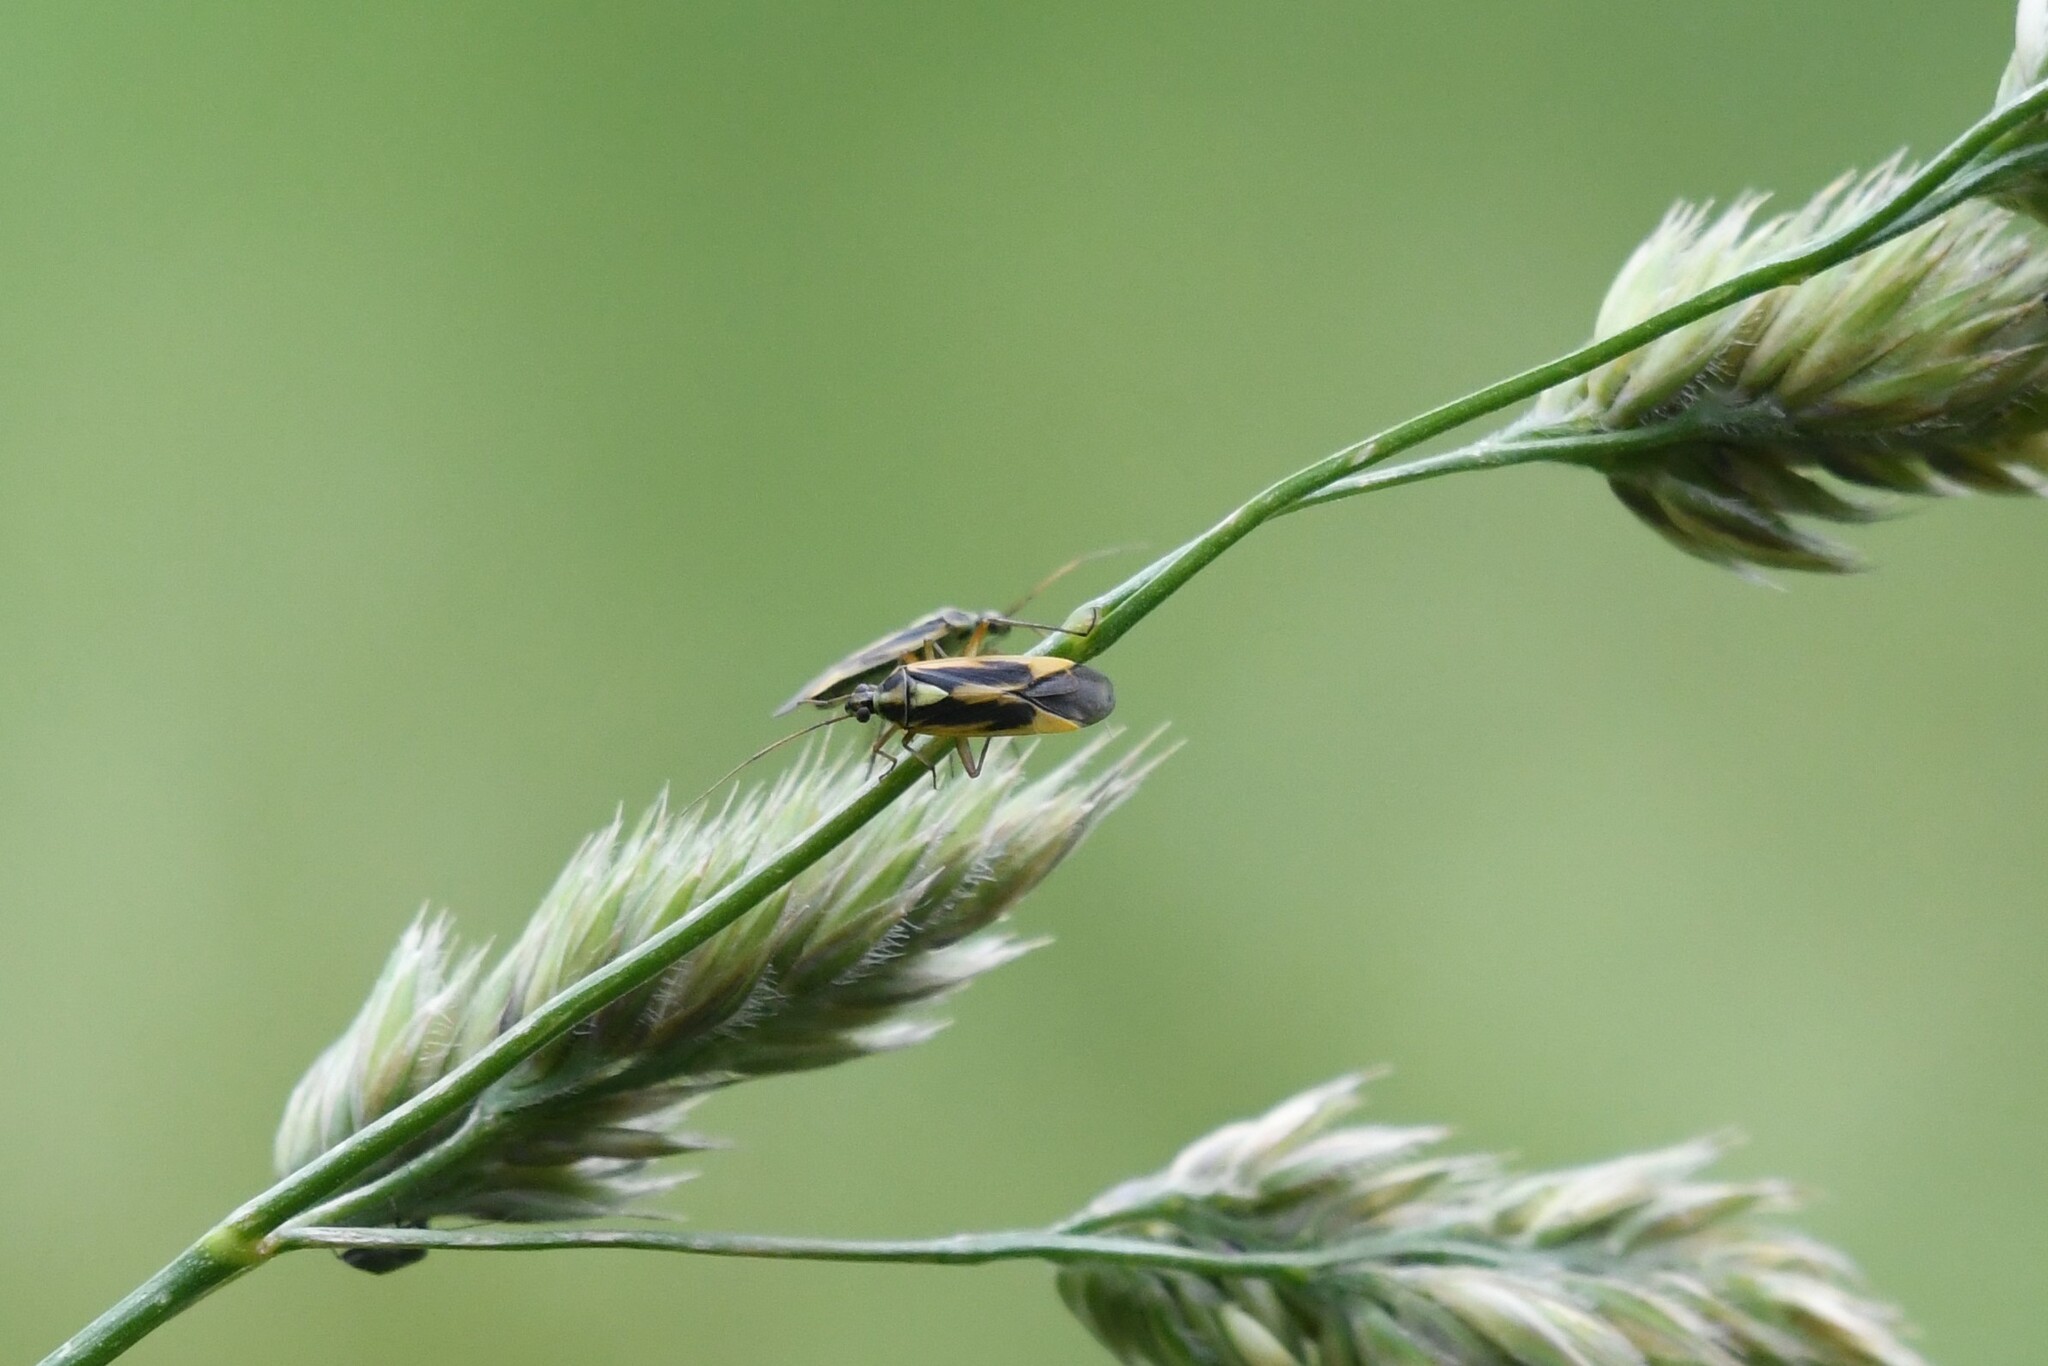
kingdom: Animalia
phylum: Arthropoda
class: Insecta
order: Hemiptera
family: Miridae
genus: Stenotus
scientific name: Stenotus binotatus
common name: Plant bug
